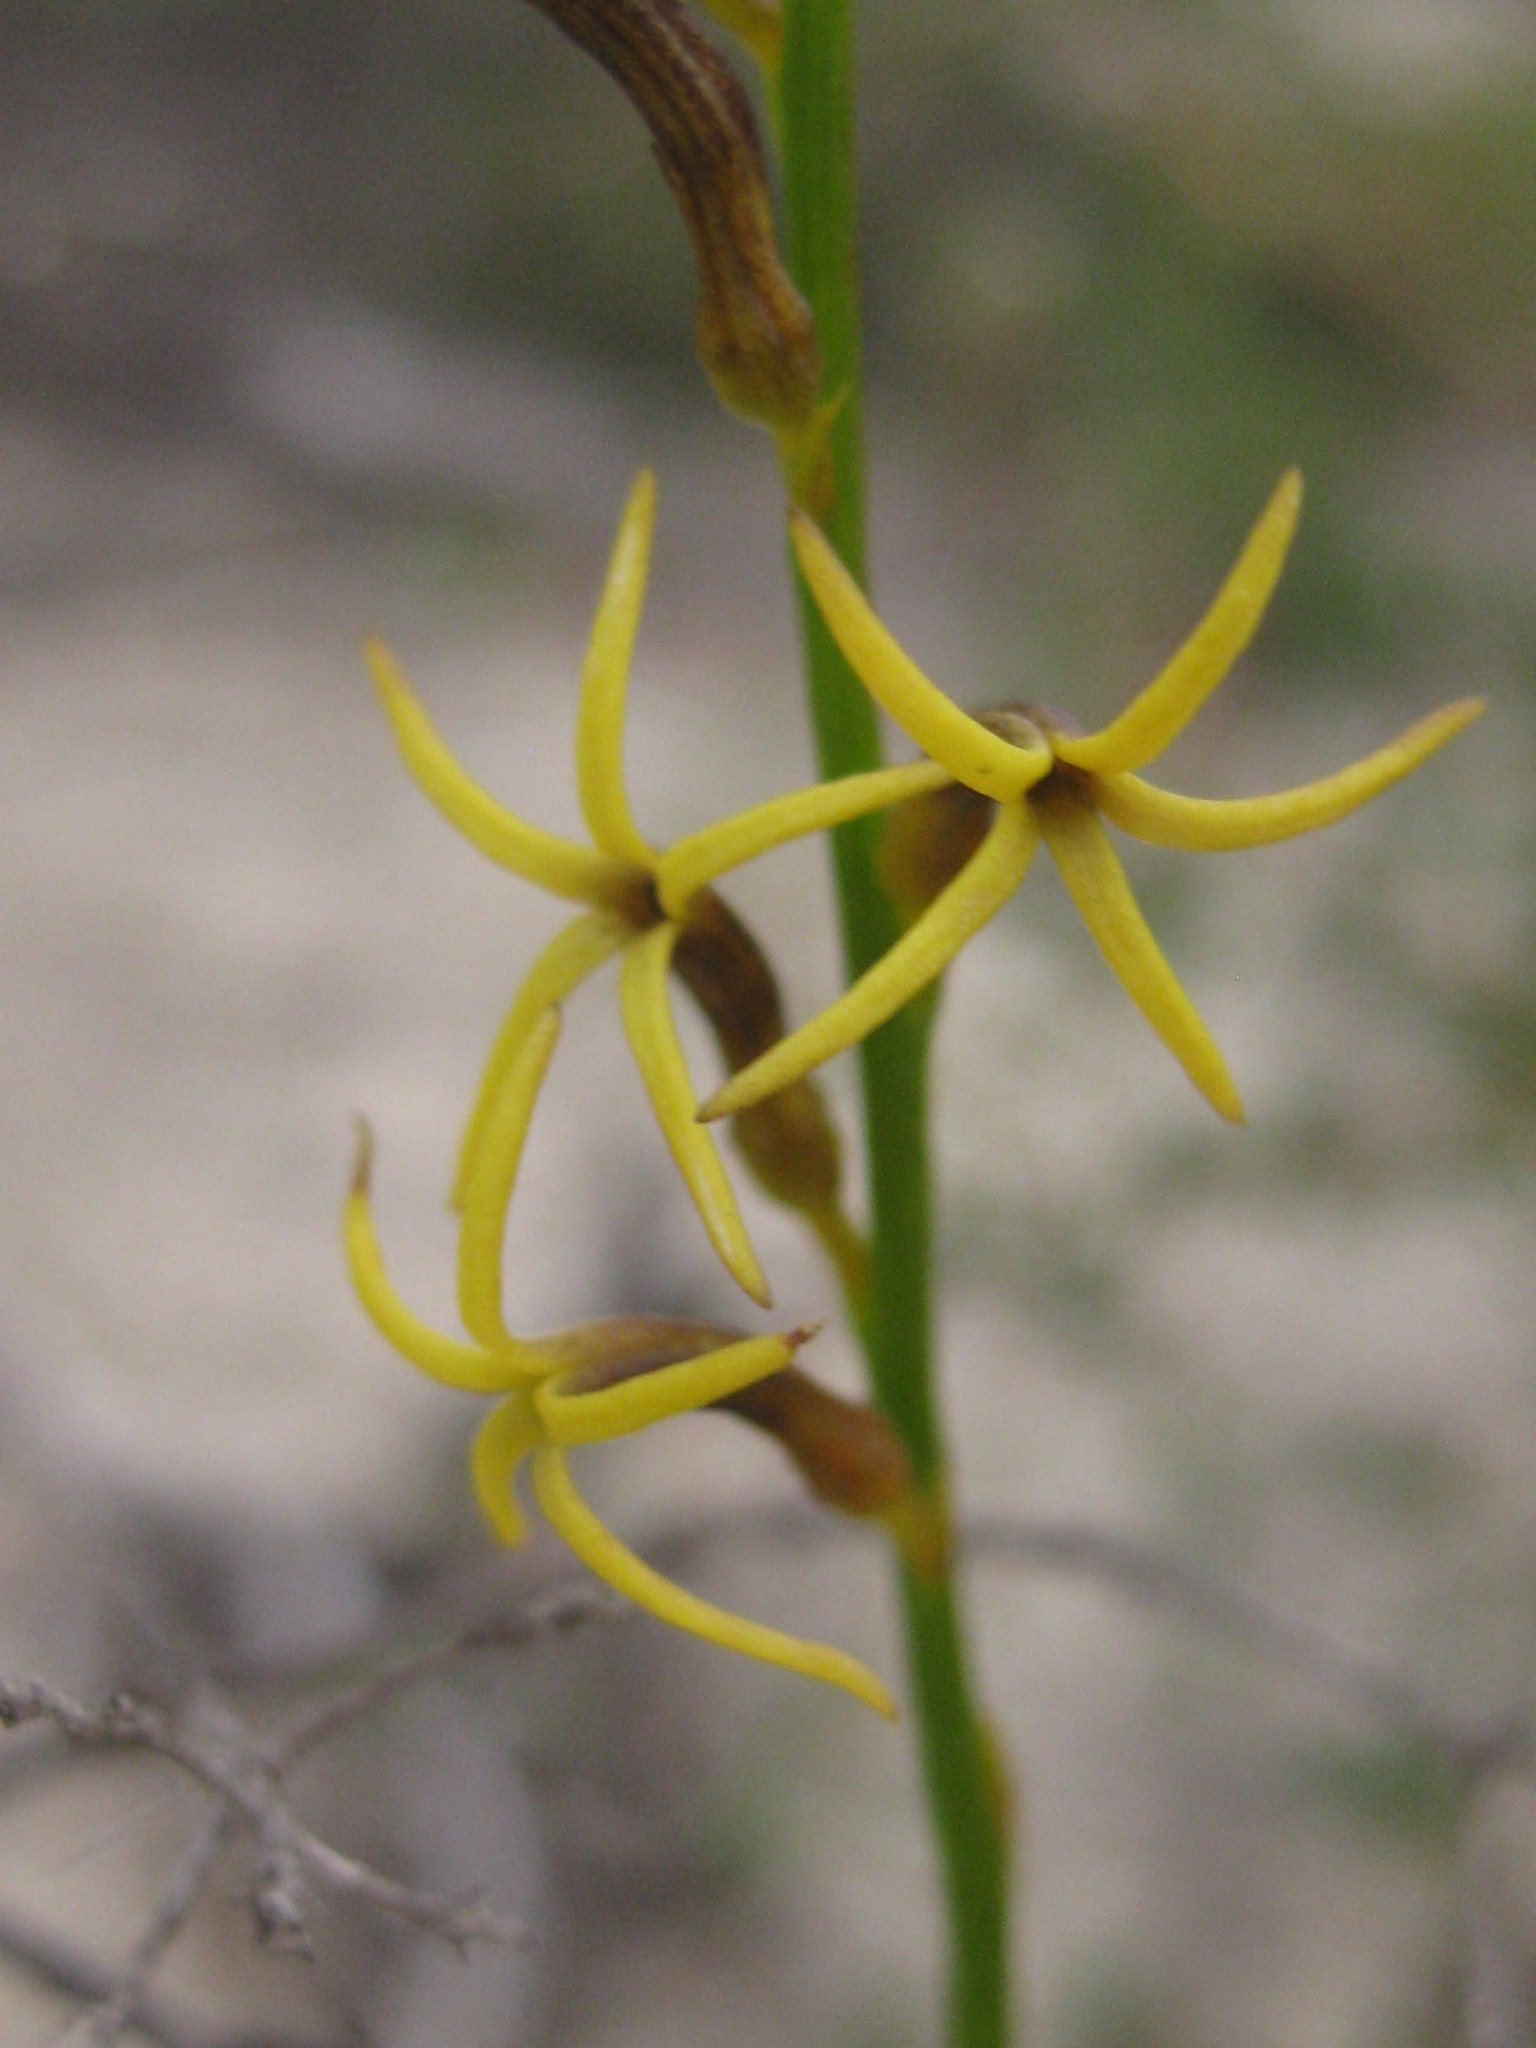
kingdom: Plantae
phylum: Tracheophyta
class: Magnoliopsida
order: Celastrales
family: Celastraceae
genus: Tripterococcus
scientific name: Tripterococcus brunonis
